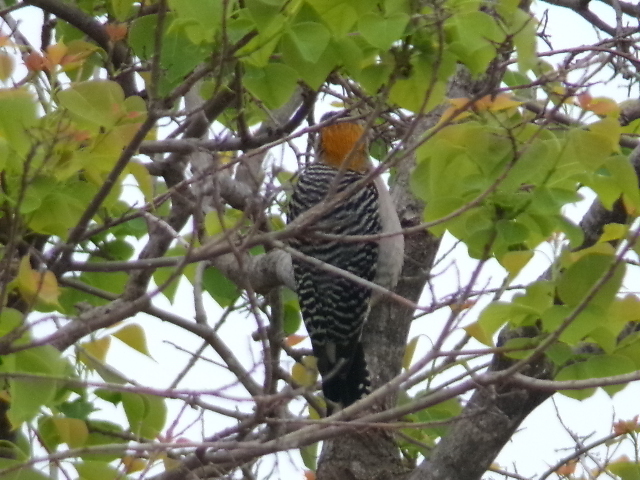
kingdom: Animalia
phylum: Chordata
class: Aves
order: Piciformes
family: Picidae
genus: Melanerpes
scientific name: Melanerpes aurifrons
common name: Golden-fronted woodpecker
